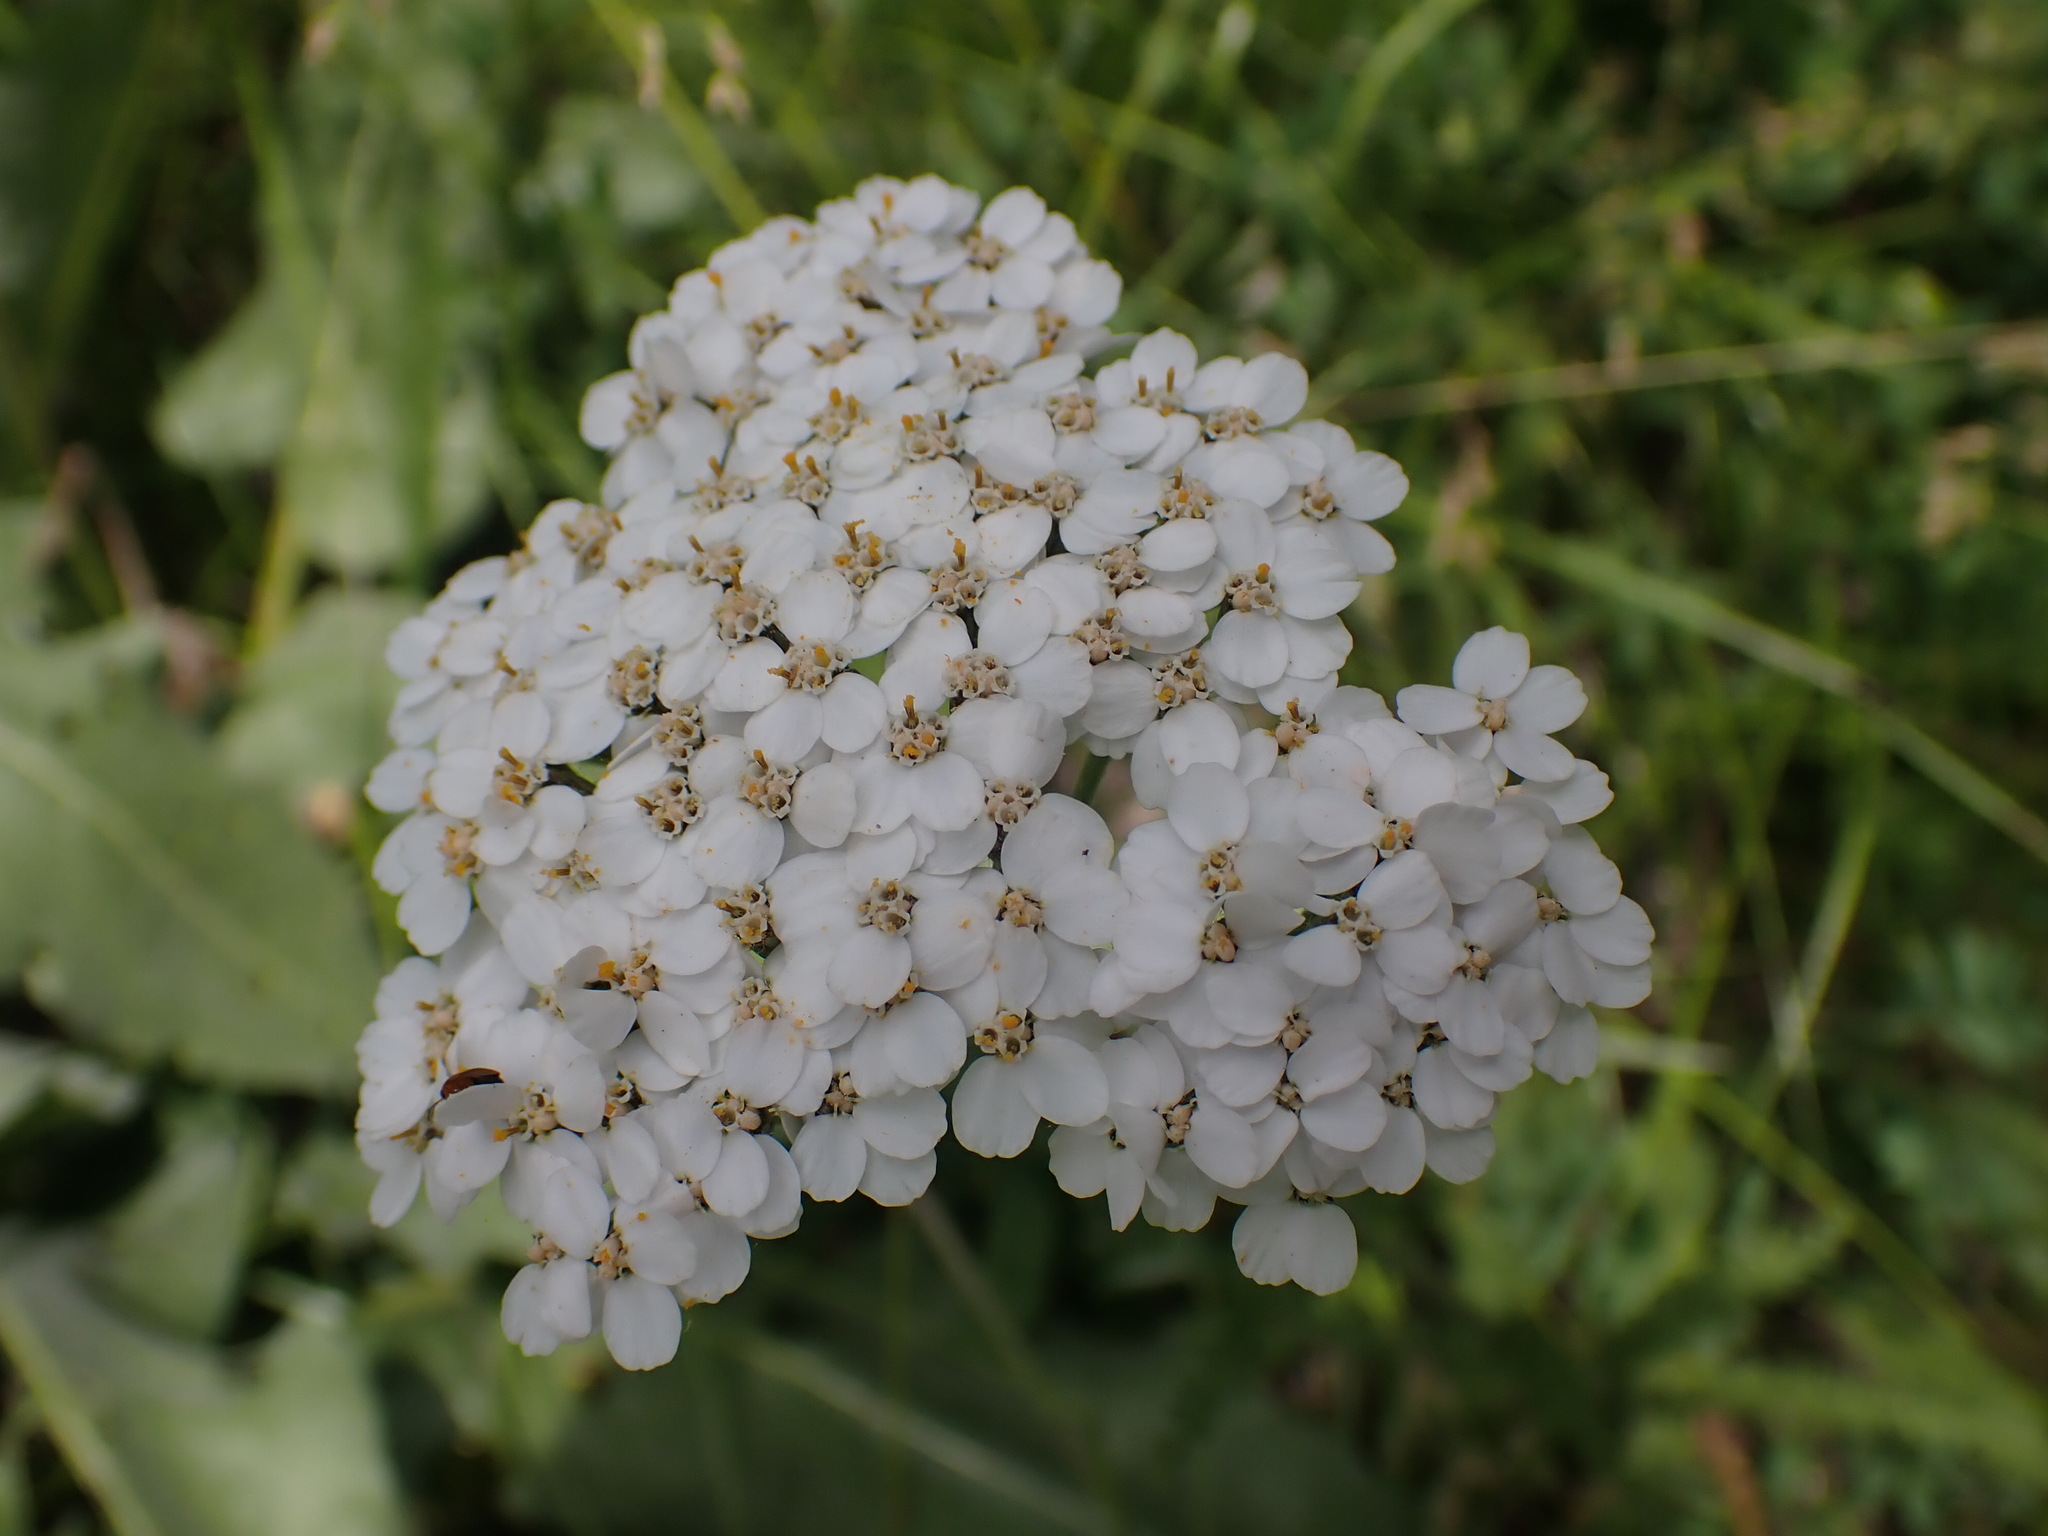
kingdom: Plantae
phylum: Tracheophyta
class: Magnoliopsida
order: Asterales
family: Asteraceae
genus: Achillea
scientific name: Achillea millefolium
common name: Yarrow
